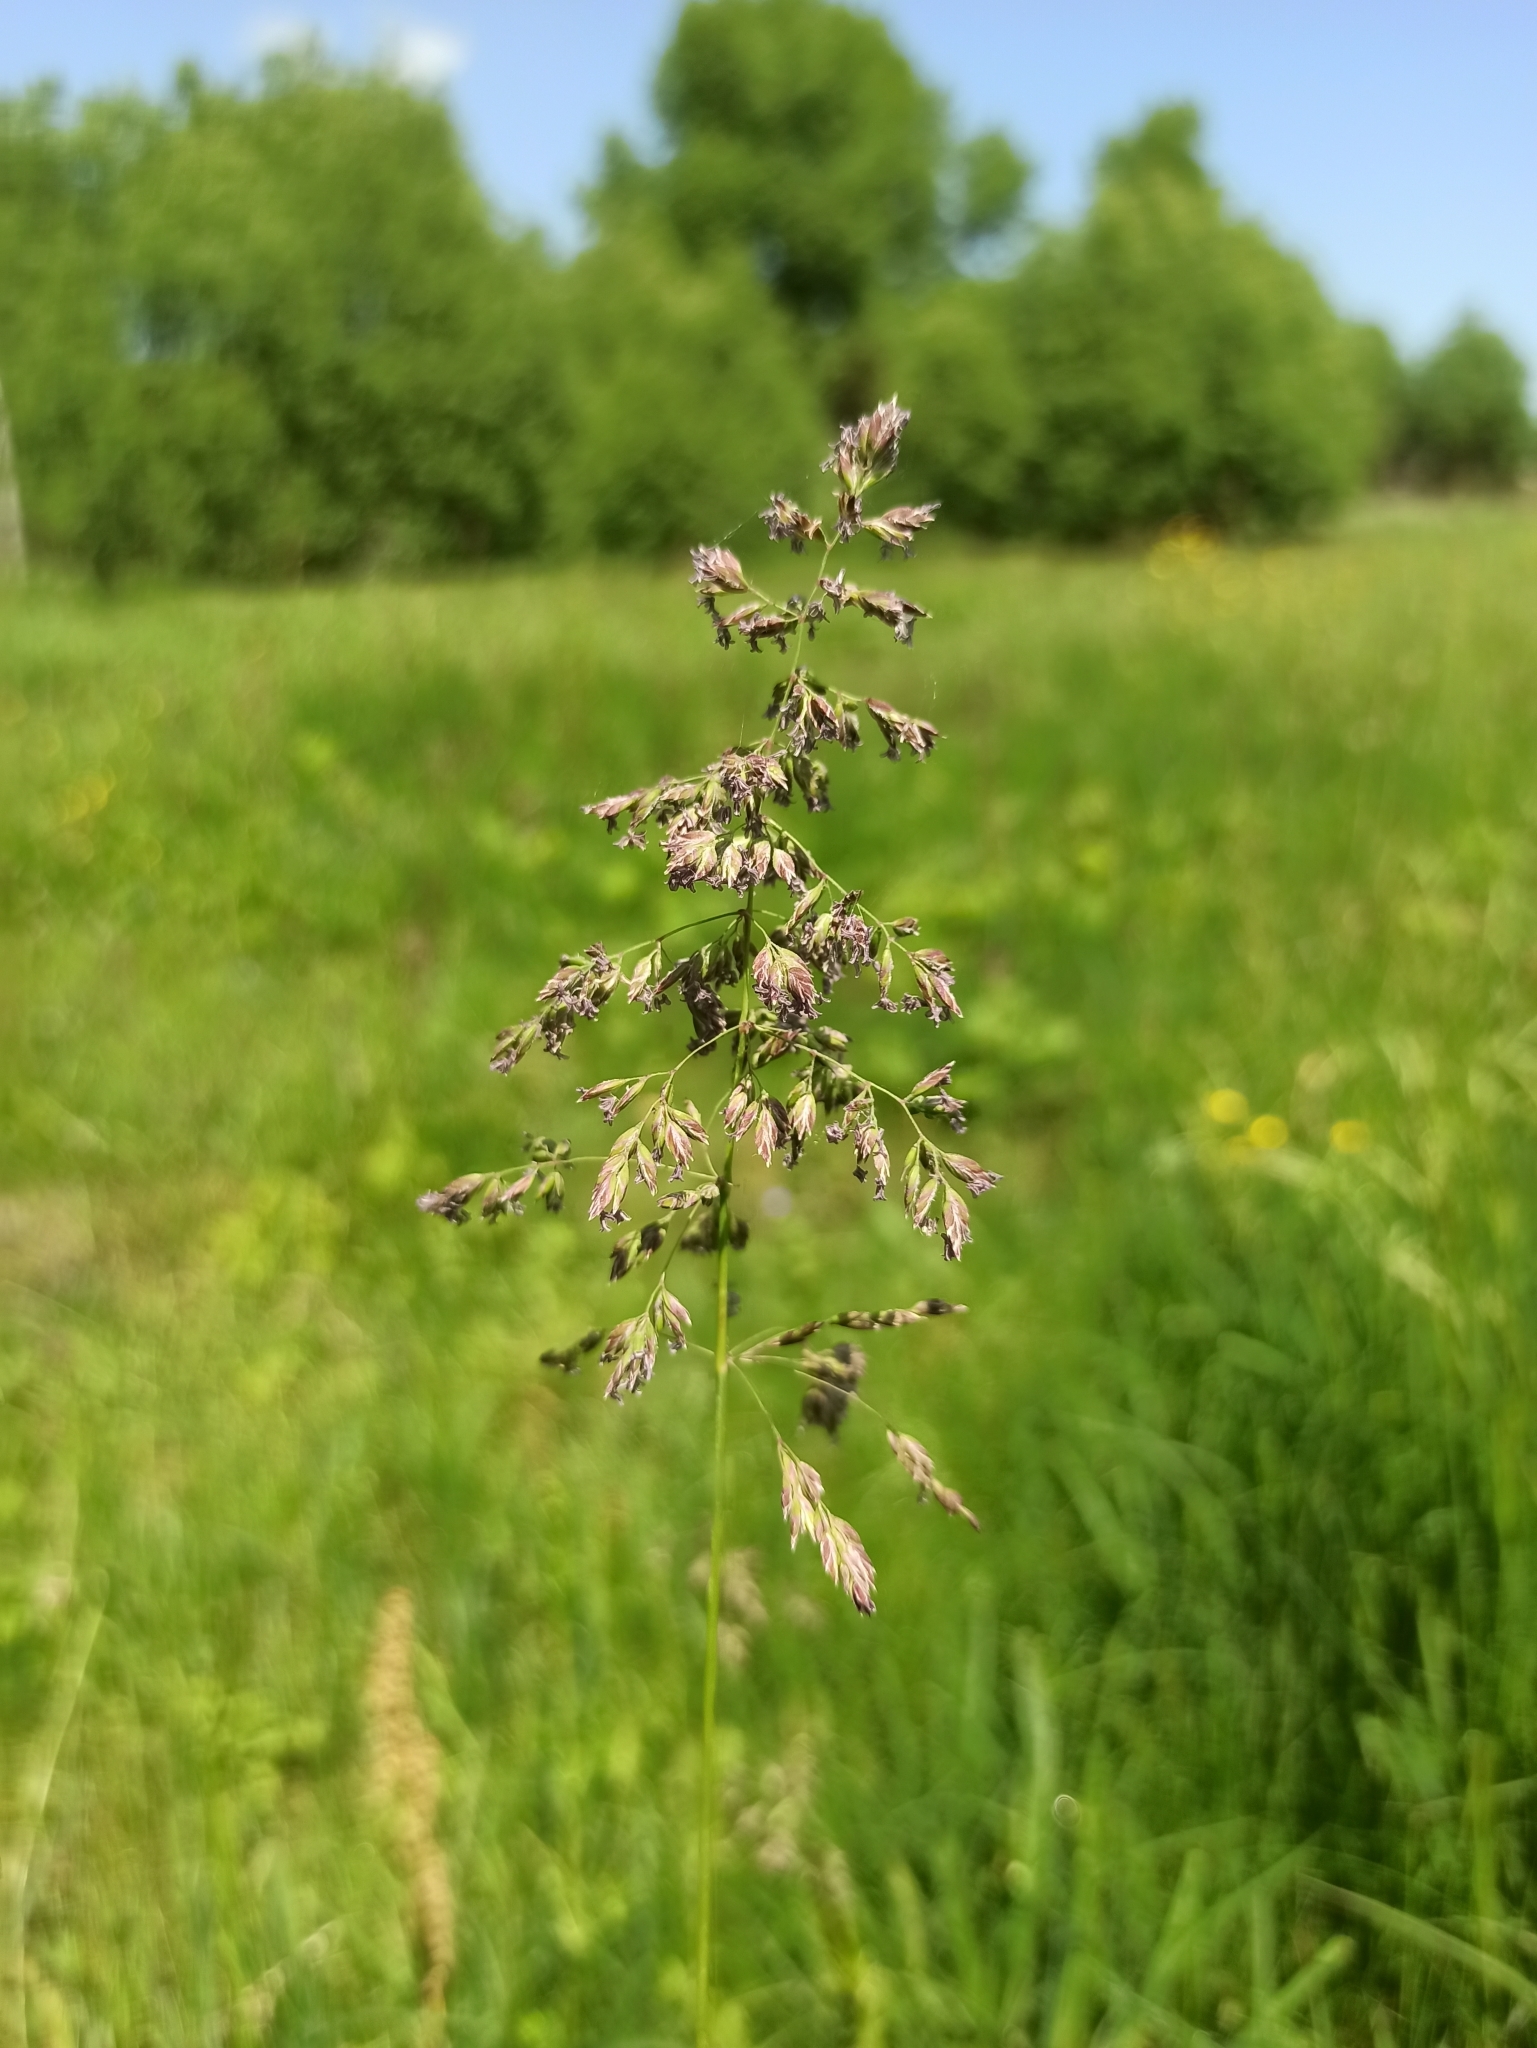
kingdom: Plantae
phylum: Tracheophyta
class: Liliopsida
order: Poales
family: Poaceae
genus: Poa
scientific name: Poa pratensis
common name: Kentucky bluegrass
